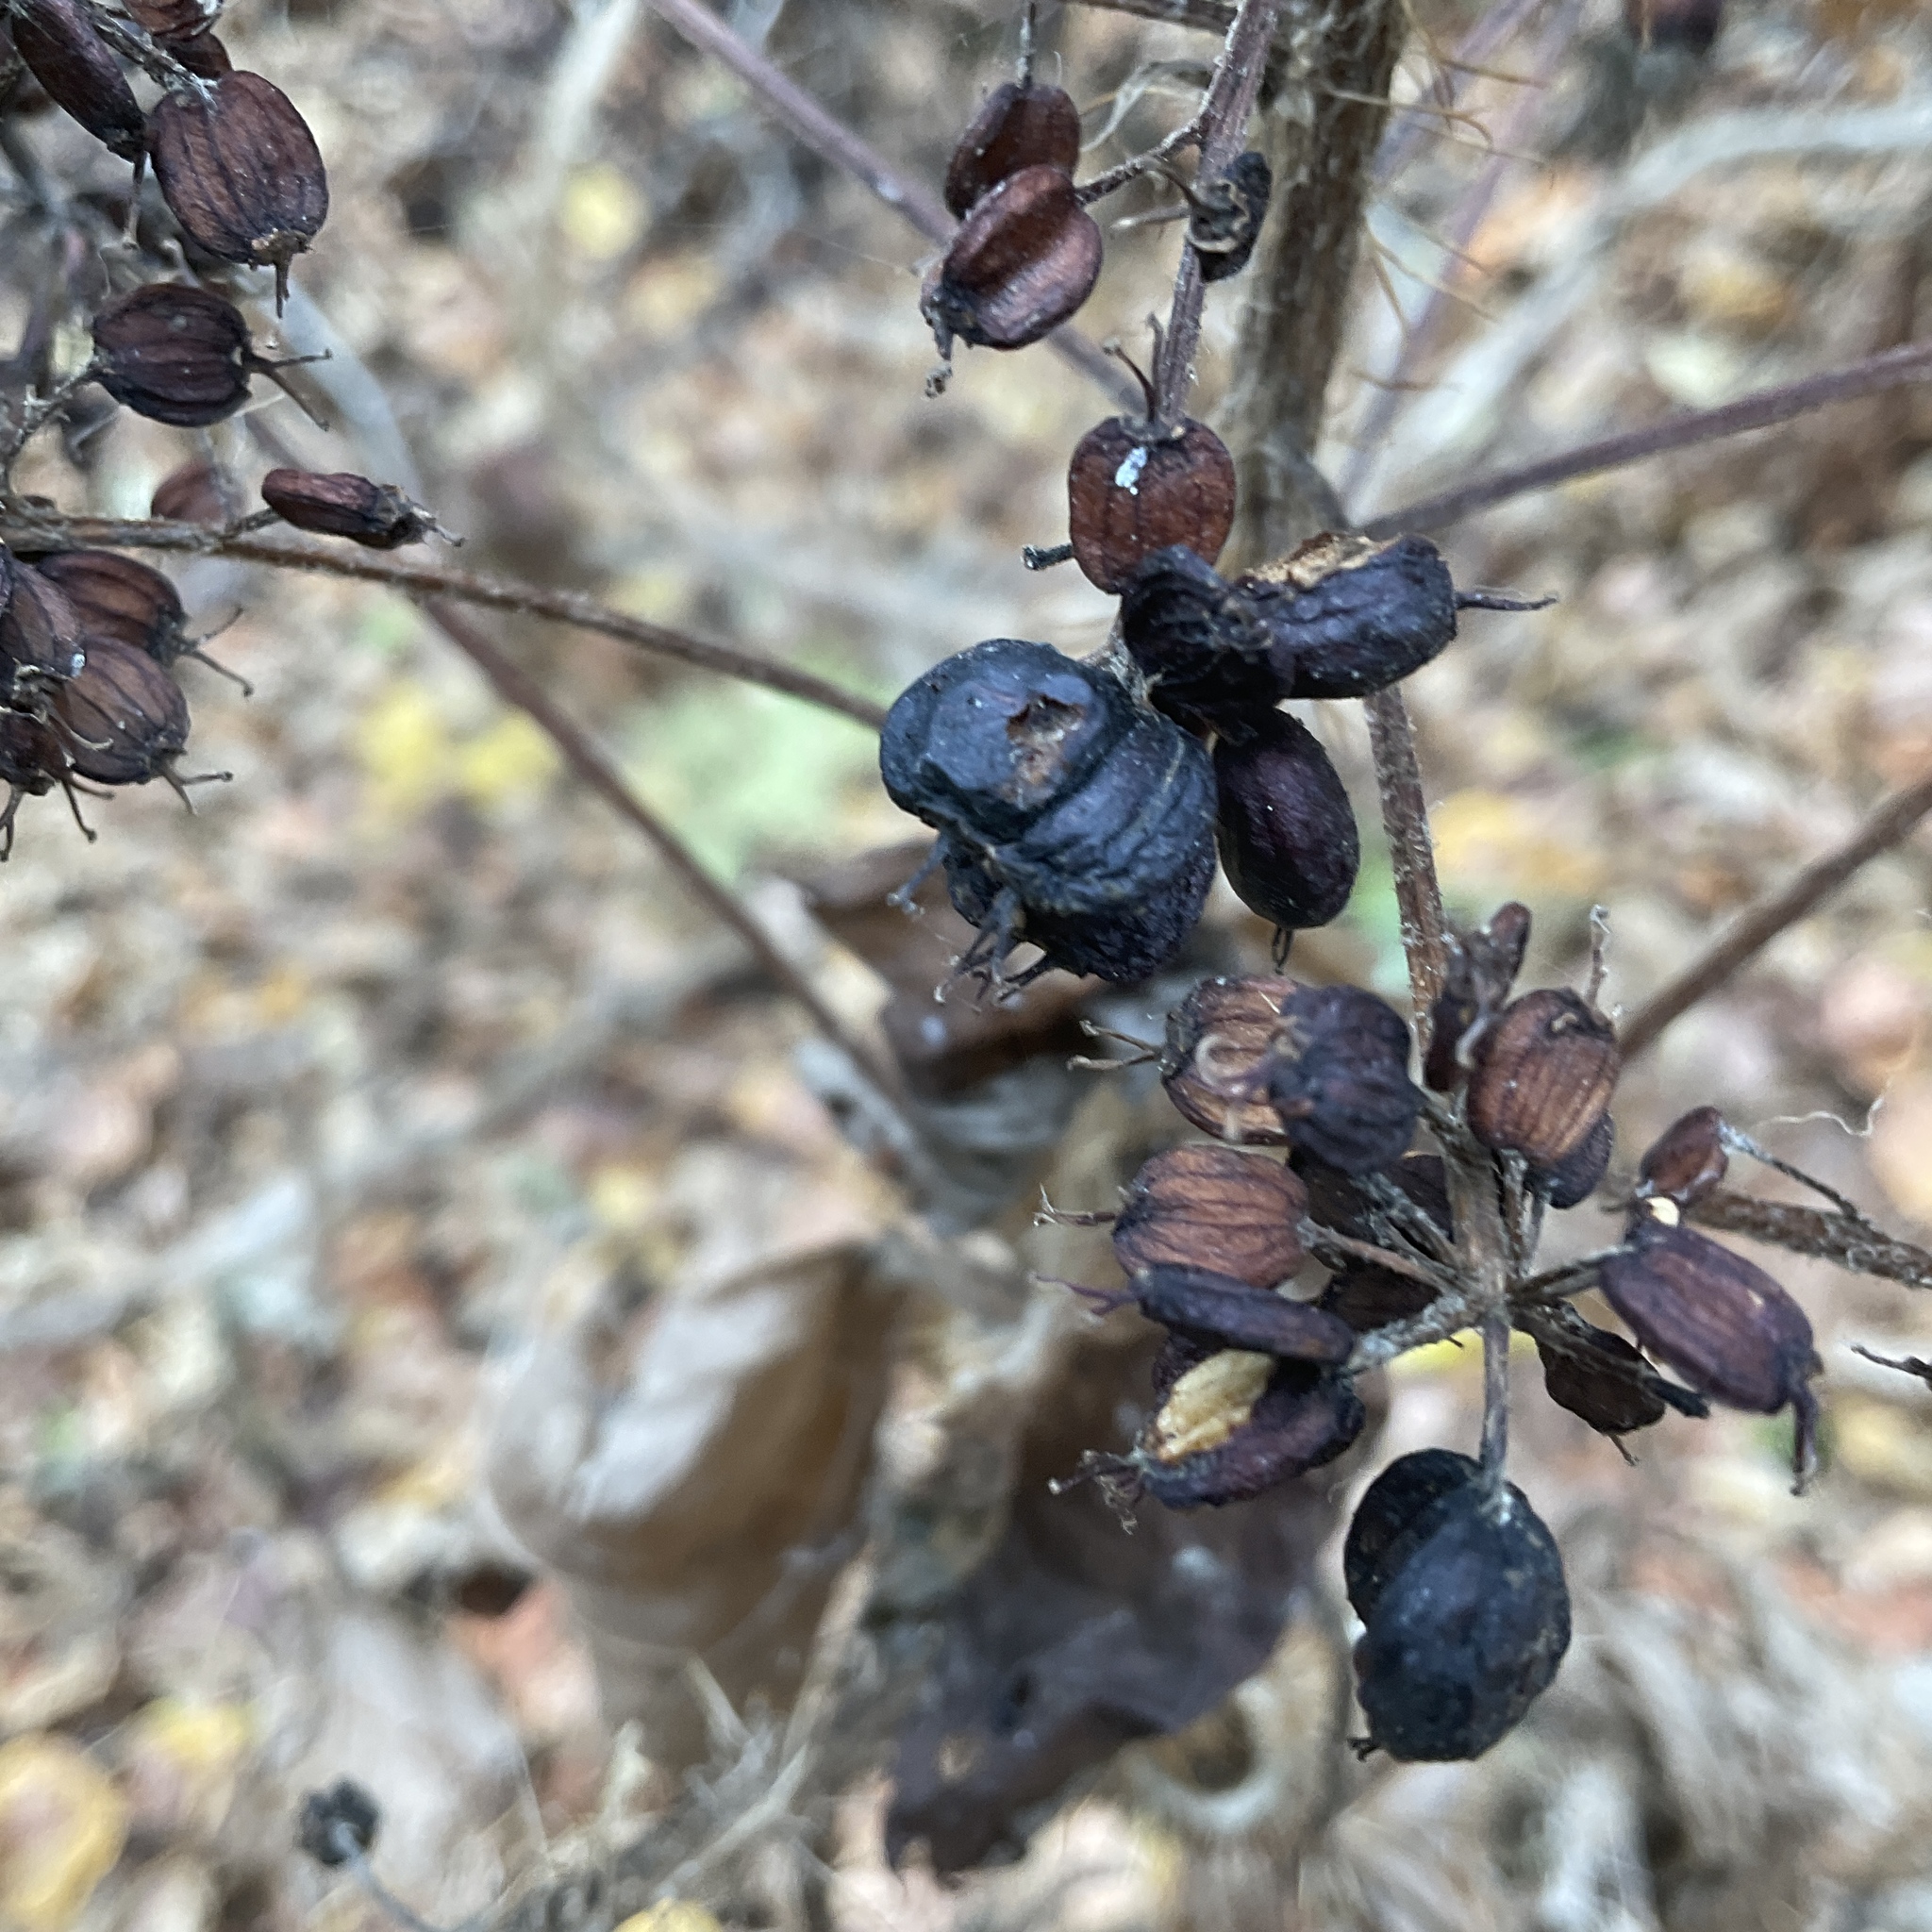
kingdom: Plantae
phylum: Tracheophyta
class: Magnoliopsida
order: Apiales
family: Araliaceae
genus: Oplopanax
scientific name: Oplopanax horridus
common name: Devil's walking-stick
